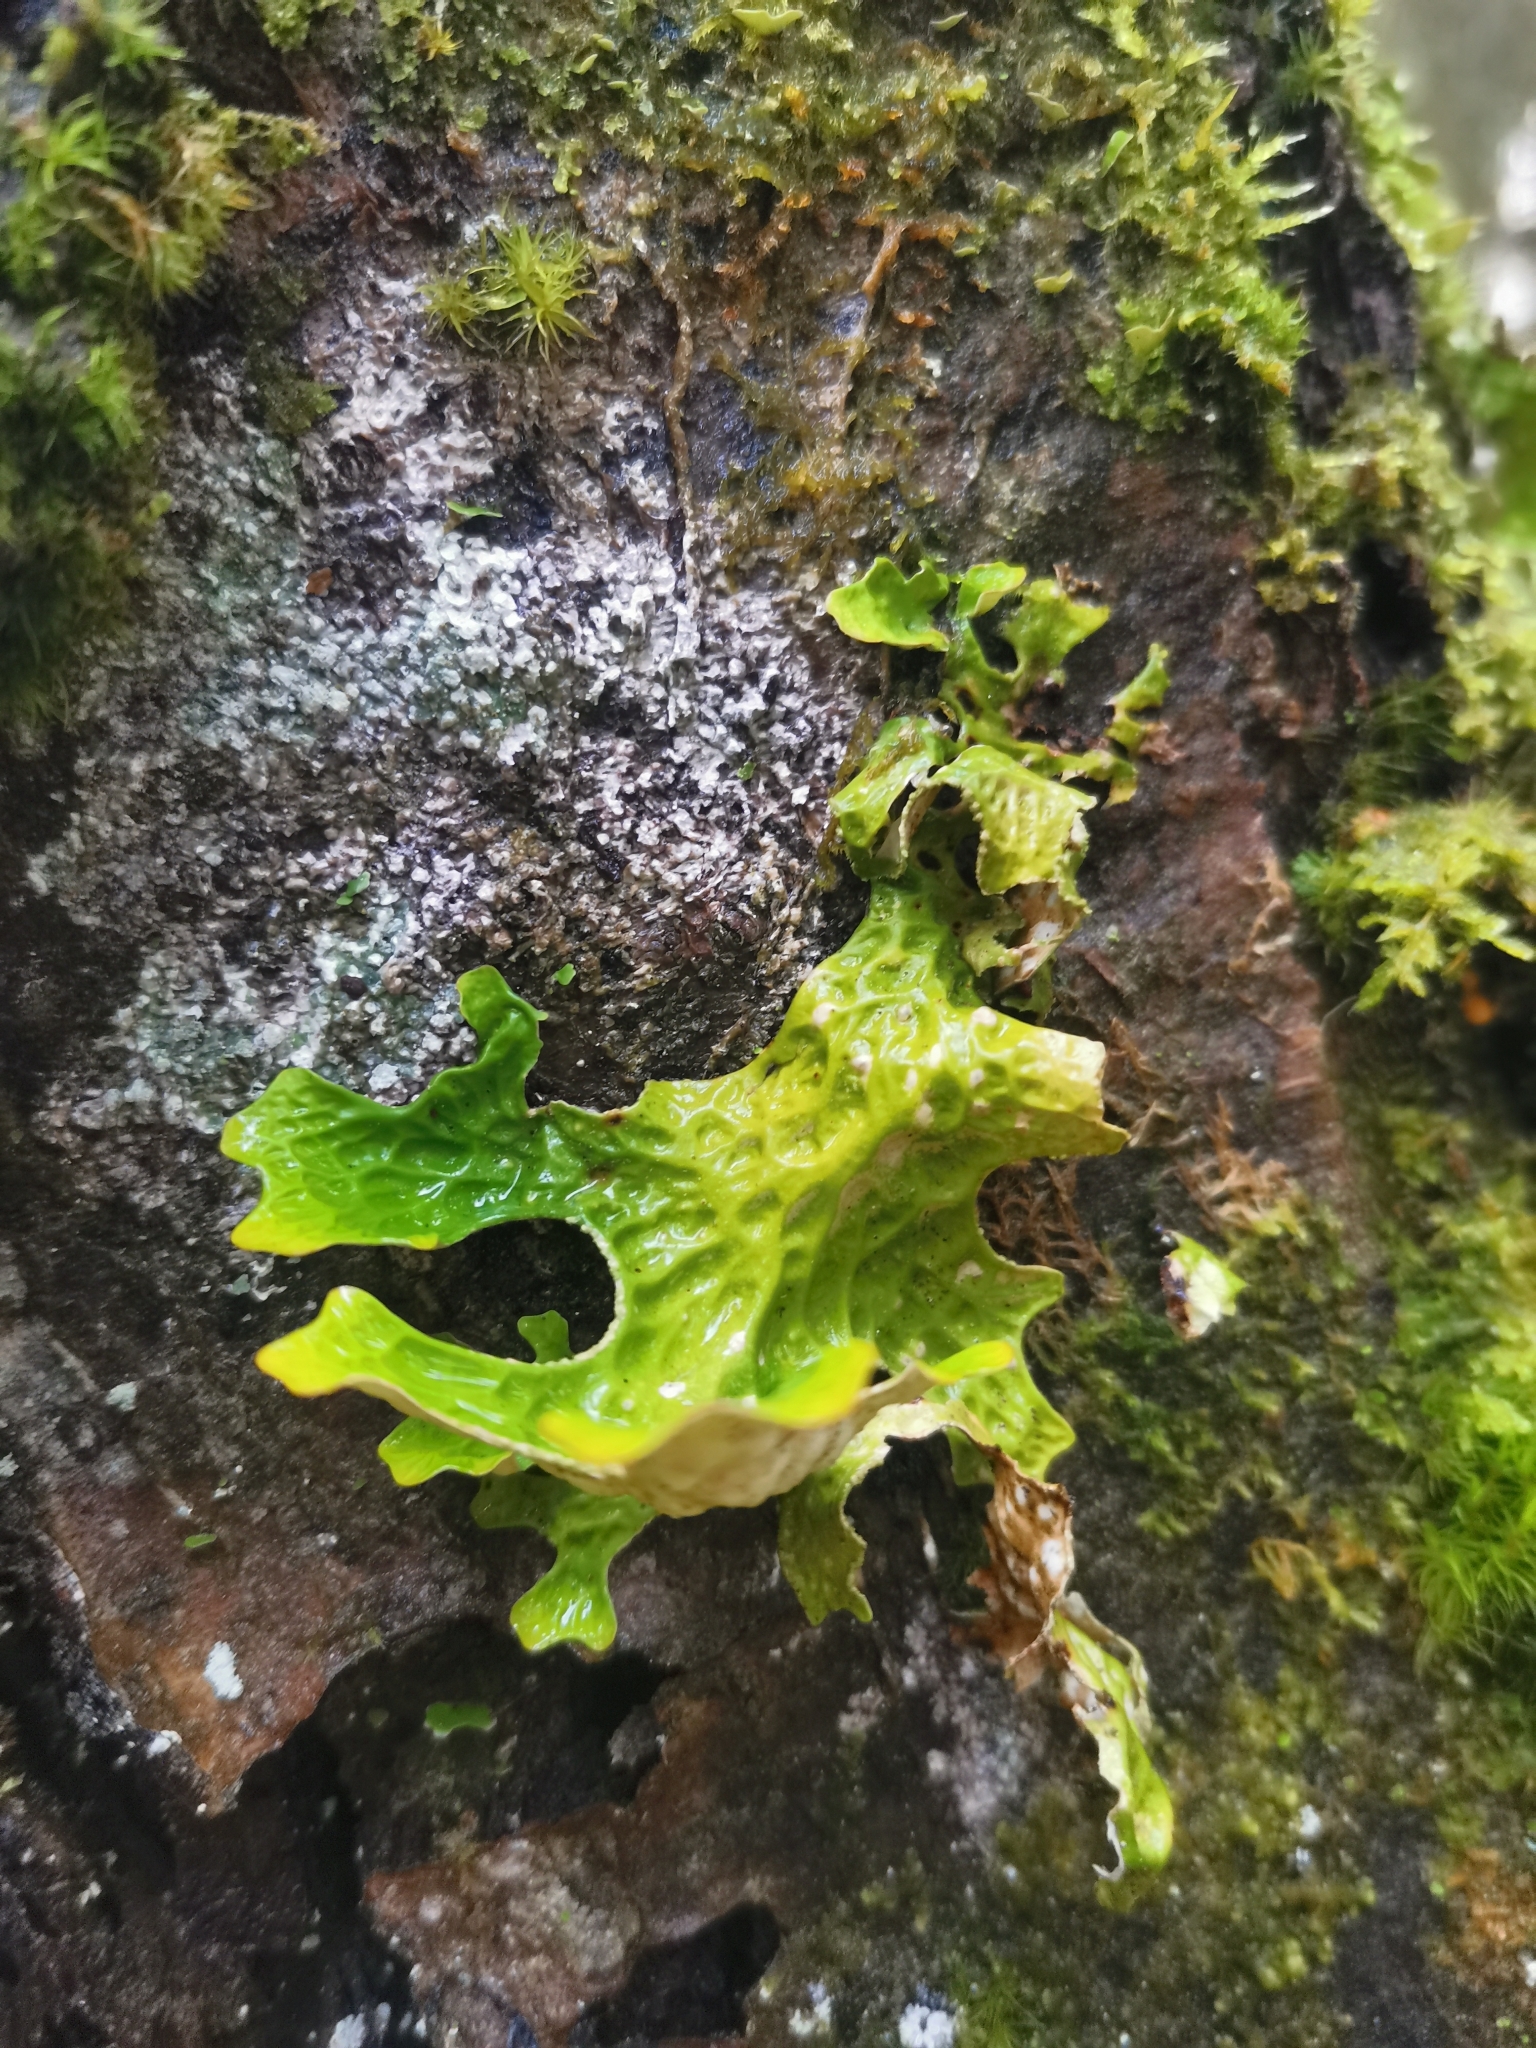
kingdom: Fungi
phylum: Ascomycota
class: Lecanoromycetes
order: Peltigerales
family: Lobariaceae
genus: Lobaria
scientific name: Lobaria pulmonaria
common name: Lungwort
